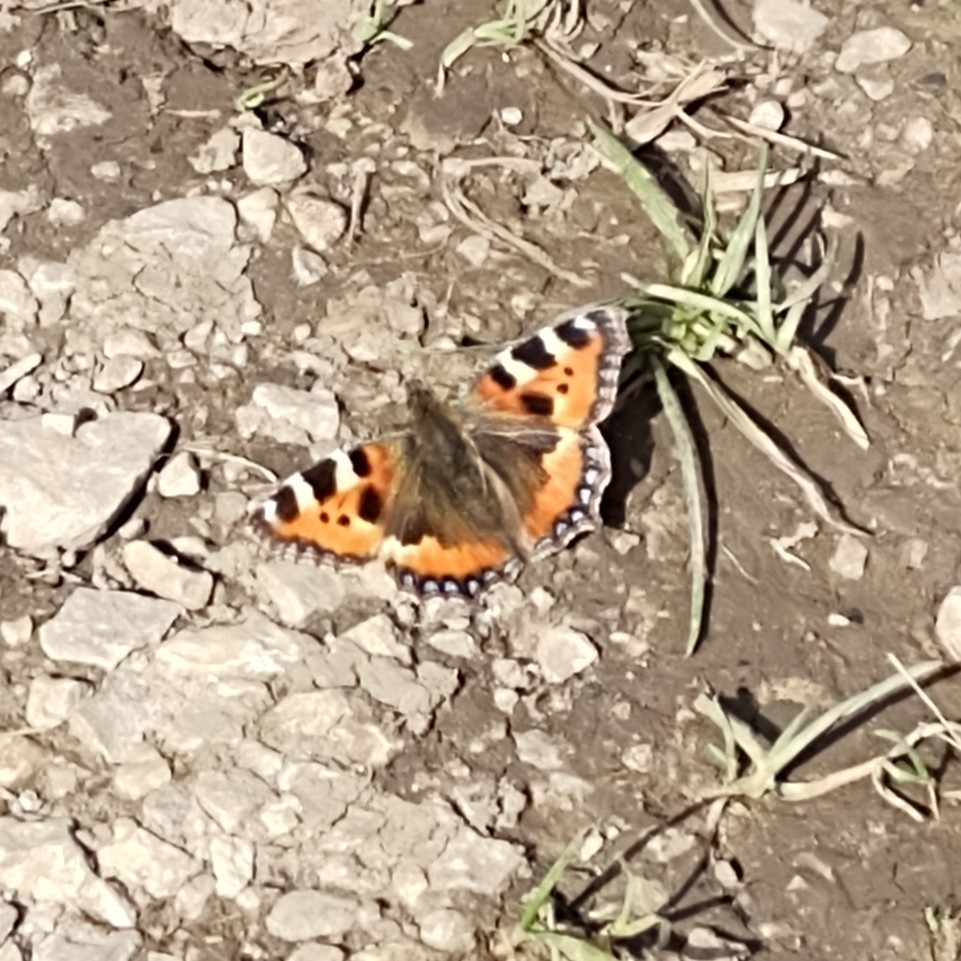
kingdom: Animalia
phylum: Arthropoda
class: Insecta
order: Lepidoptera
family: Nymphalidae
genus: Aglais
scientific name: Aglais urticae
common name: Small tortoiseshell
